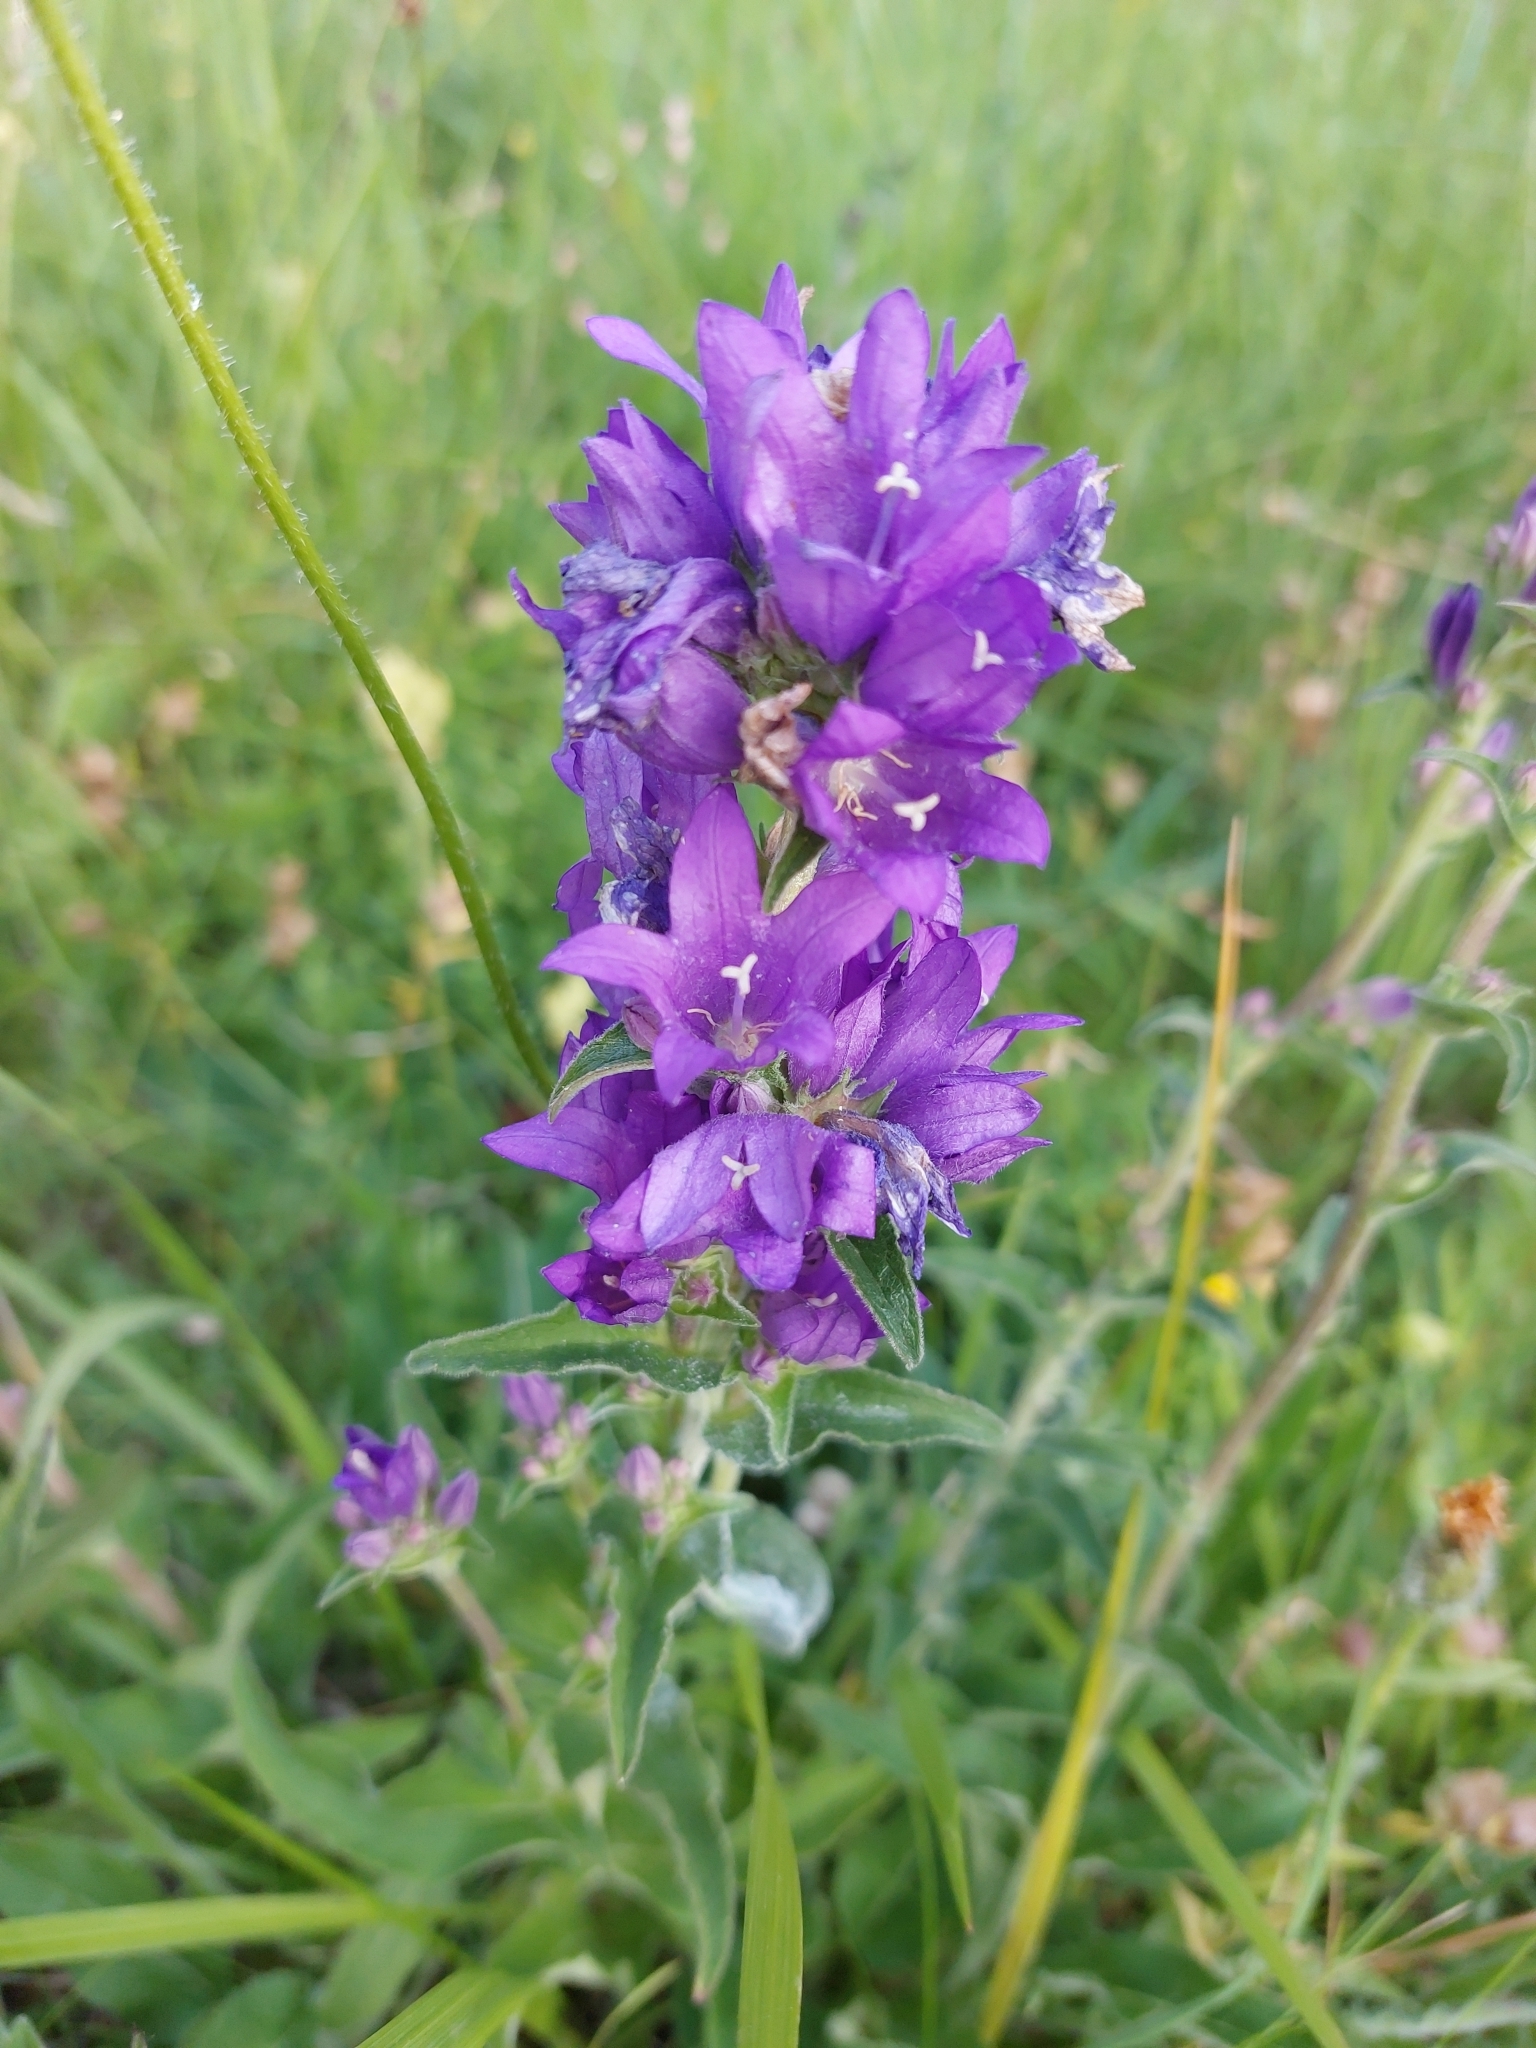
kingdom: Plantae
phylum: Tracheophyta
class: Magnoliopsida
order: Asterales
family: Campanulaceae
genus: Campanula
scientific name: Campanula glomerata
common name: Clustered bellflower
